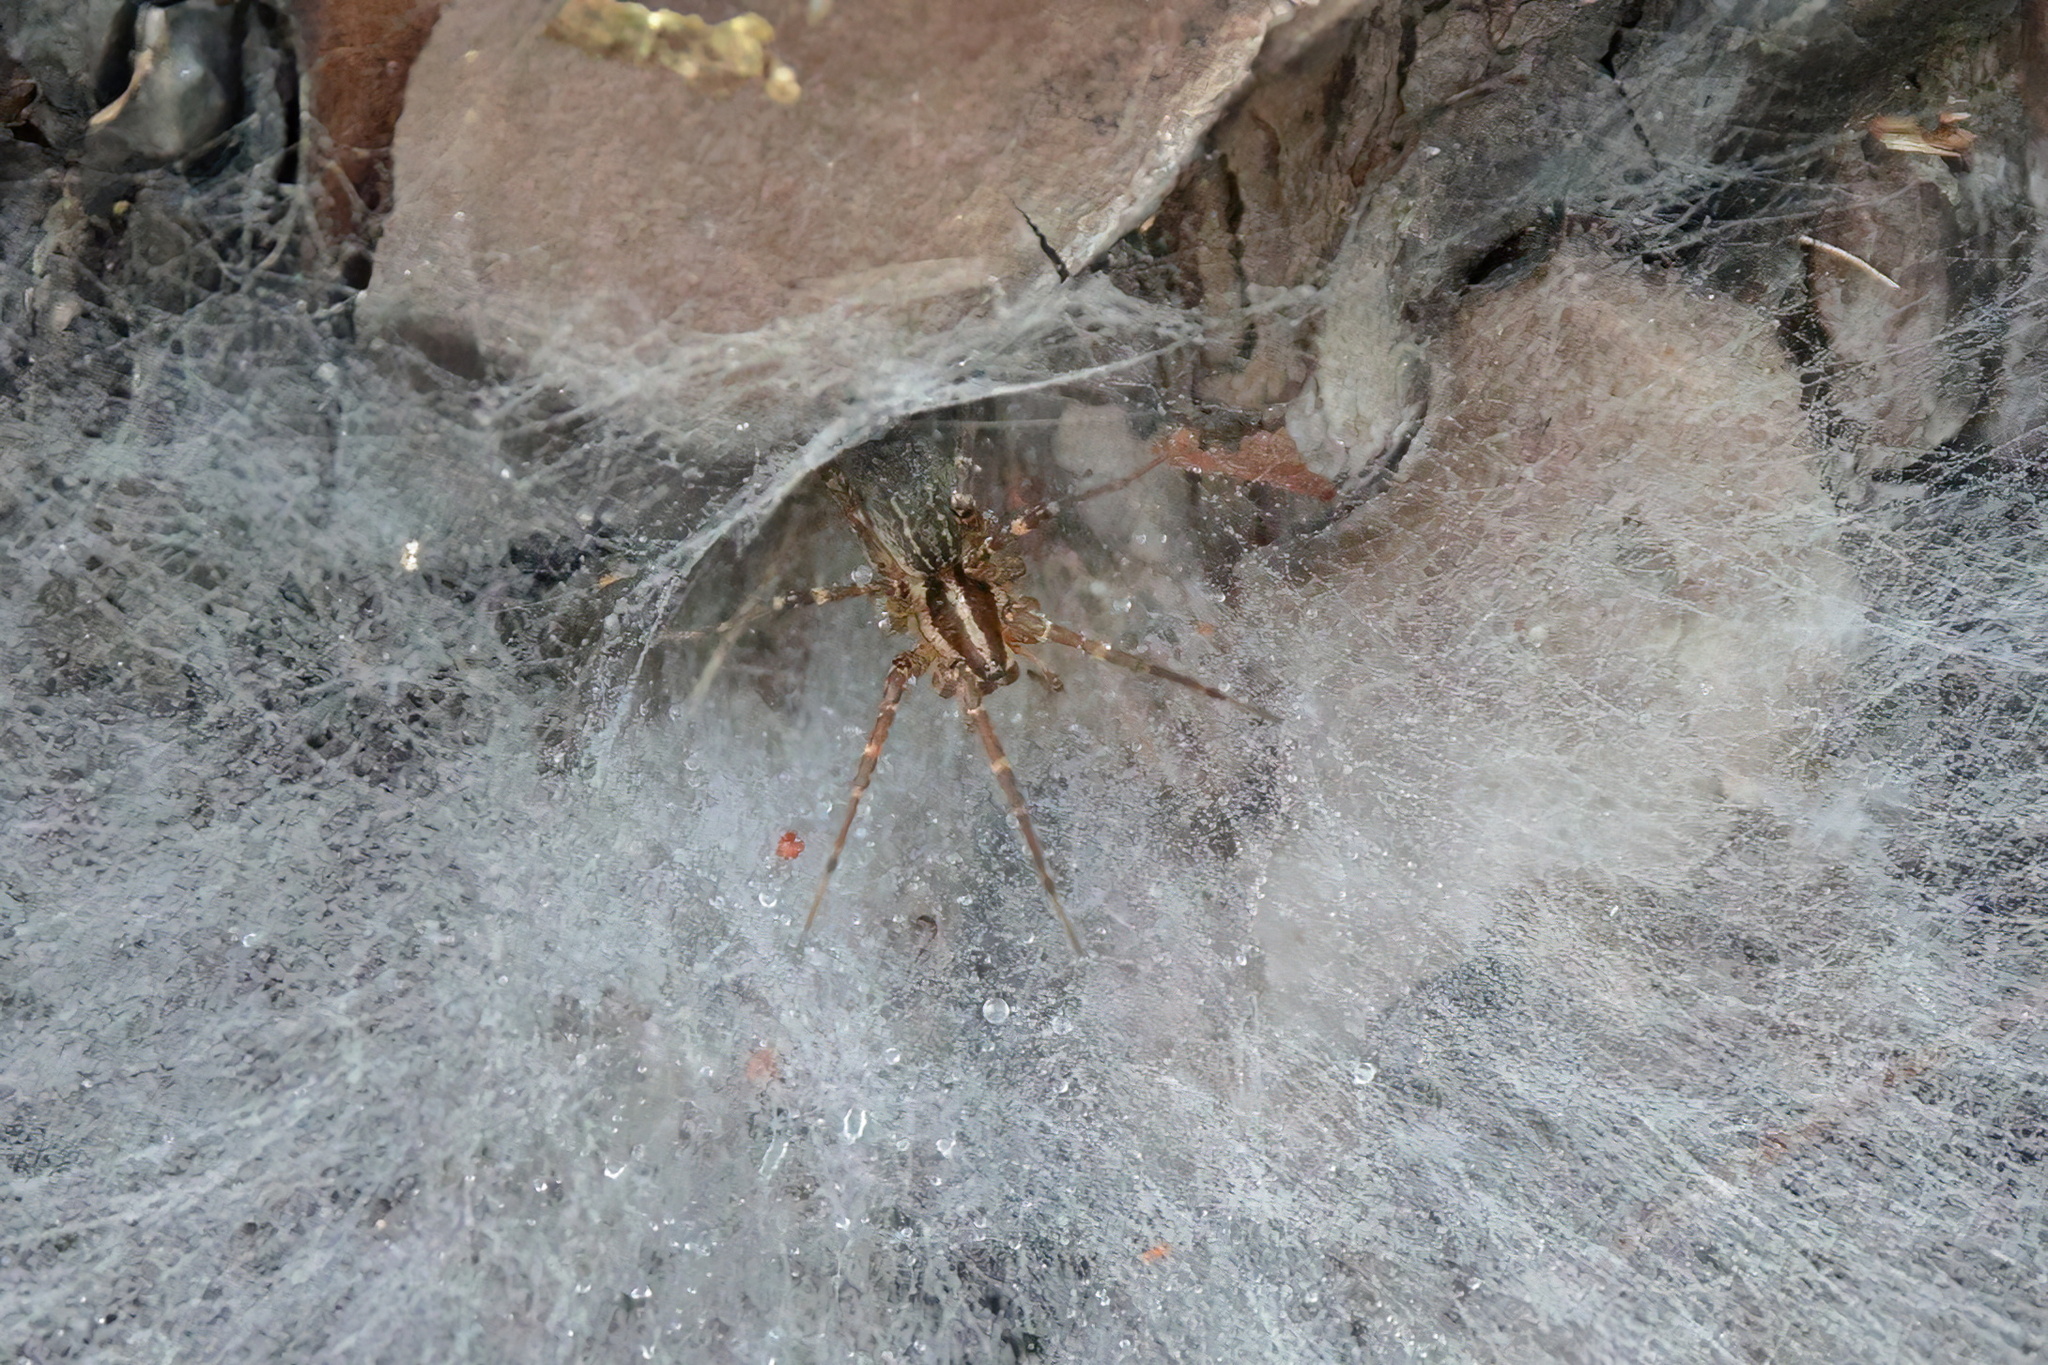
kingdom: Animalia
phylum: Arthropoda
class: Arachnida
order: Araneae
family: Agelenidae
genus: Agelenopsis
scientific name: Agelenopsis
